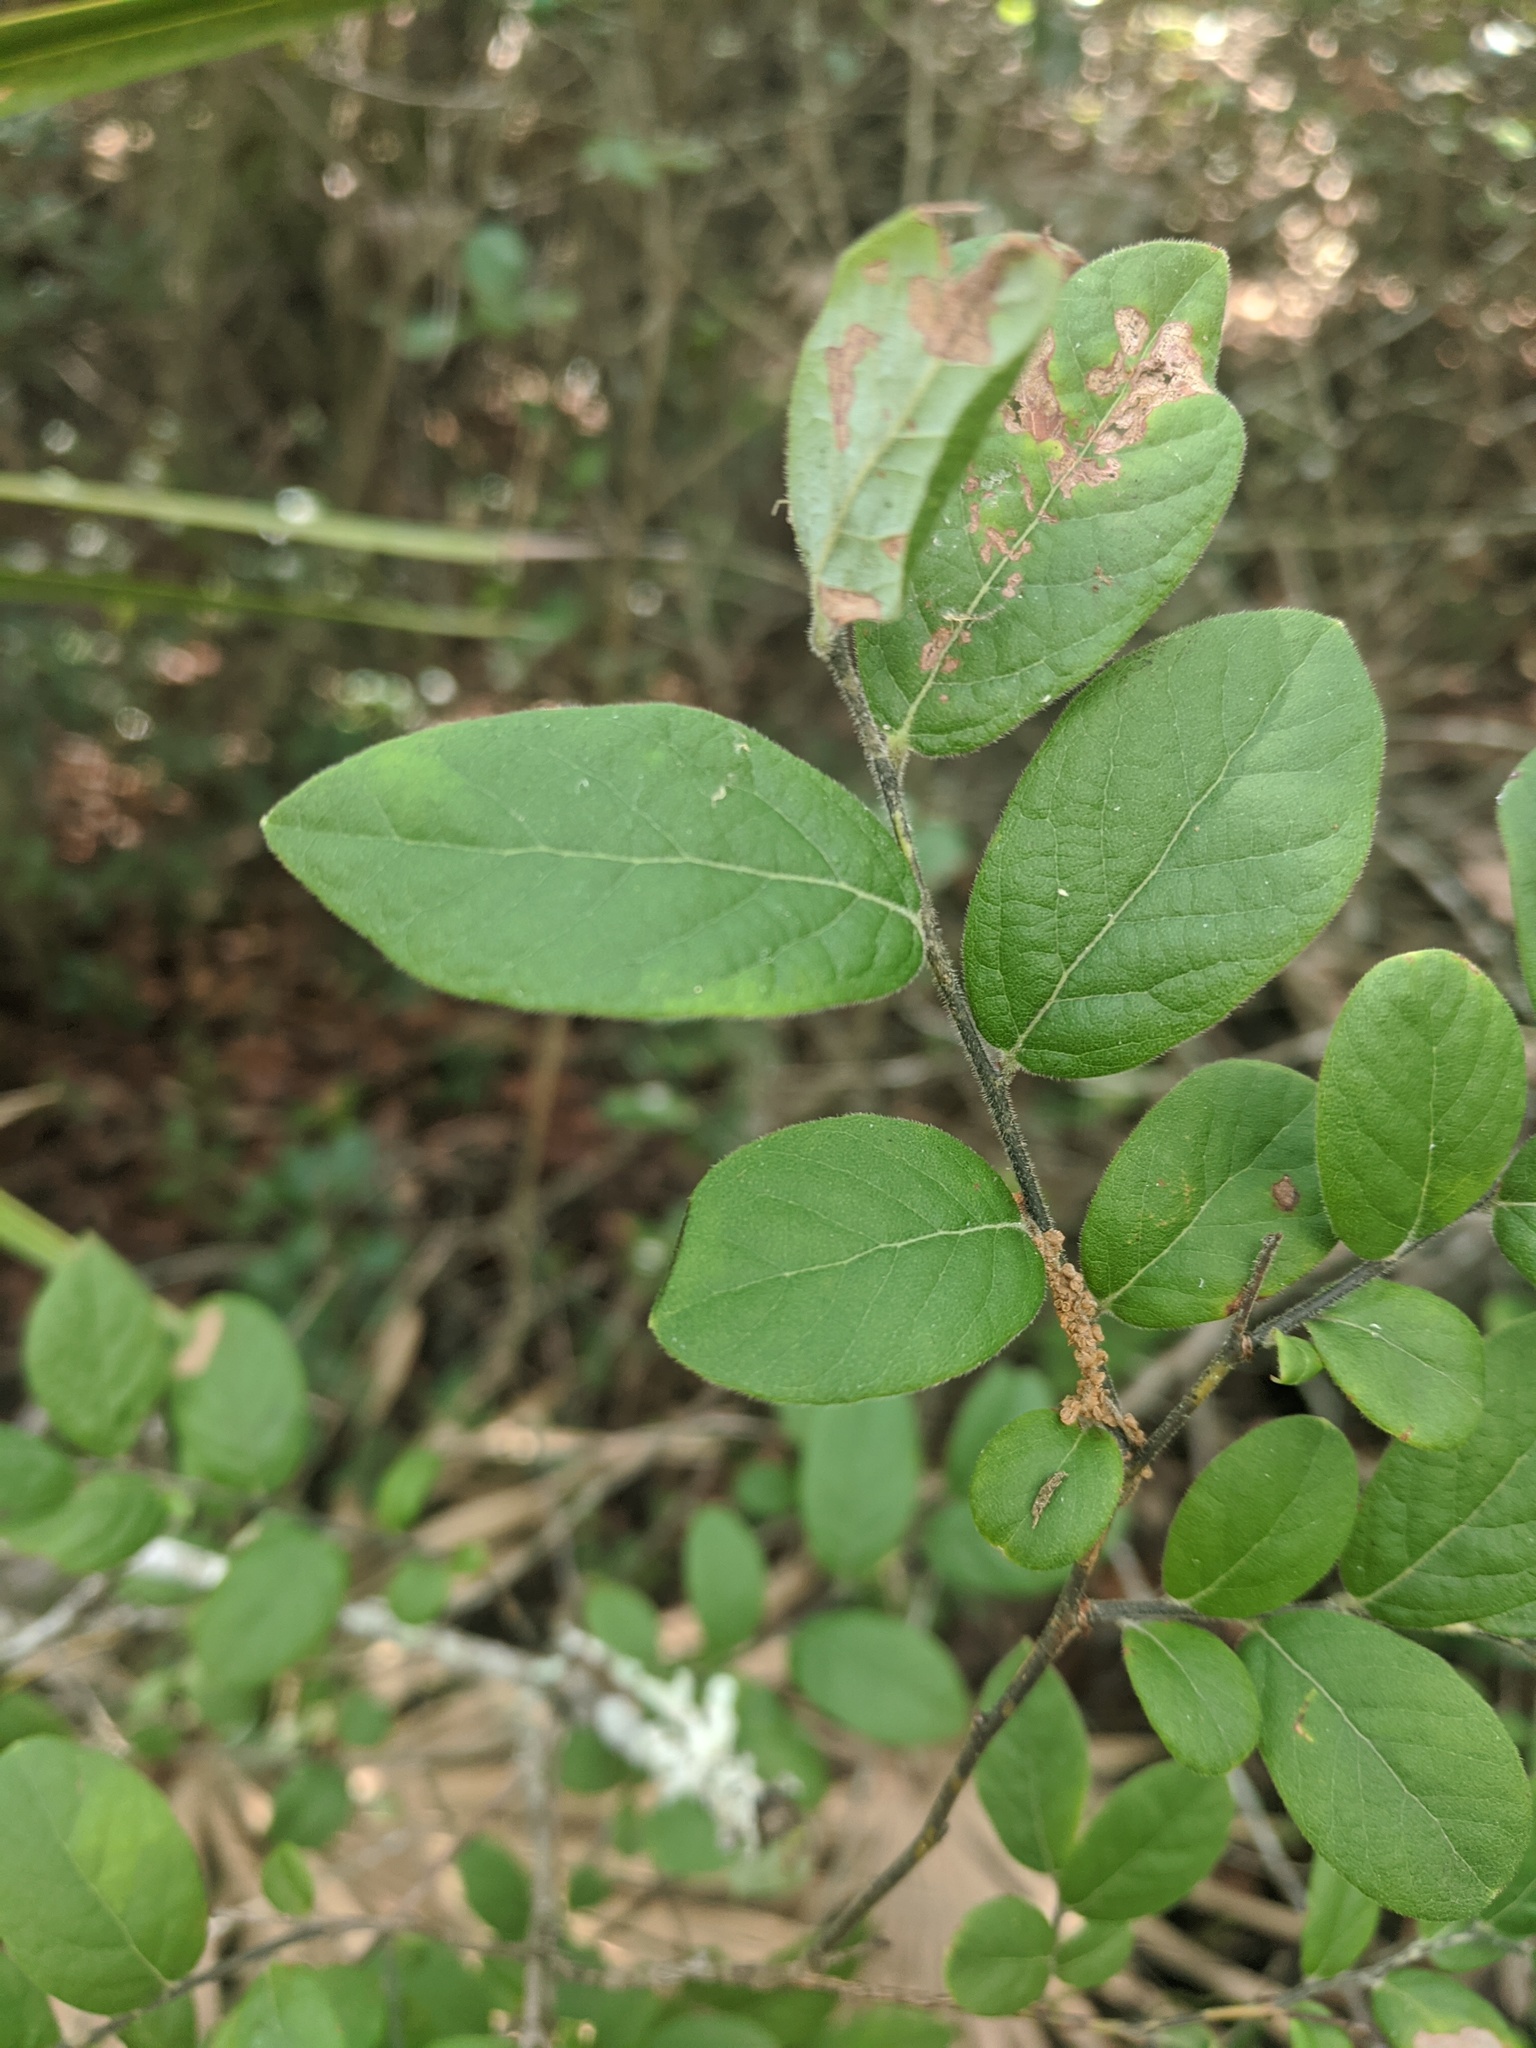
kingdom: Plantae
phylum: Tracheophyta
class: Magnoliopsida
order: Ericales
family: Ericaceae
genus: Vaccinium
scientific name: Vaccinium stamineum
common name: Deerberry
